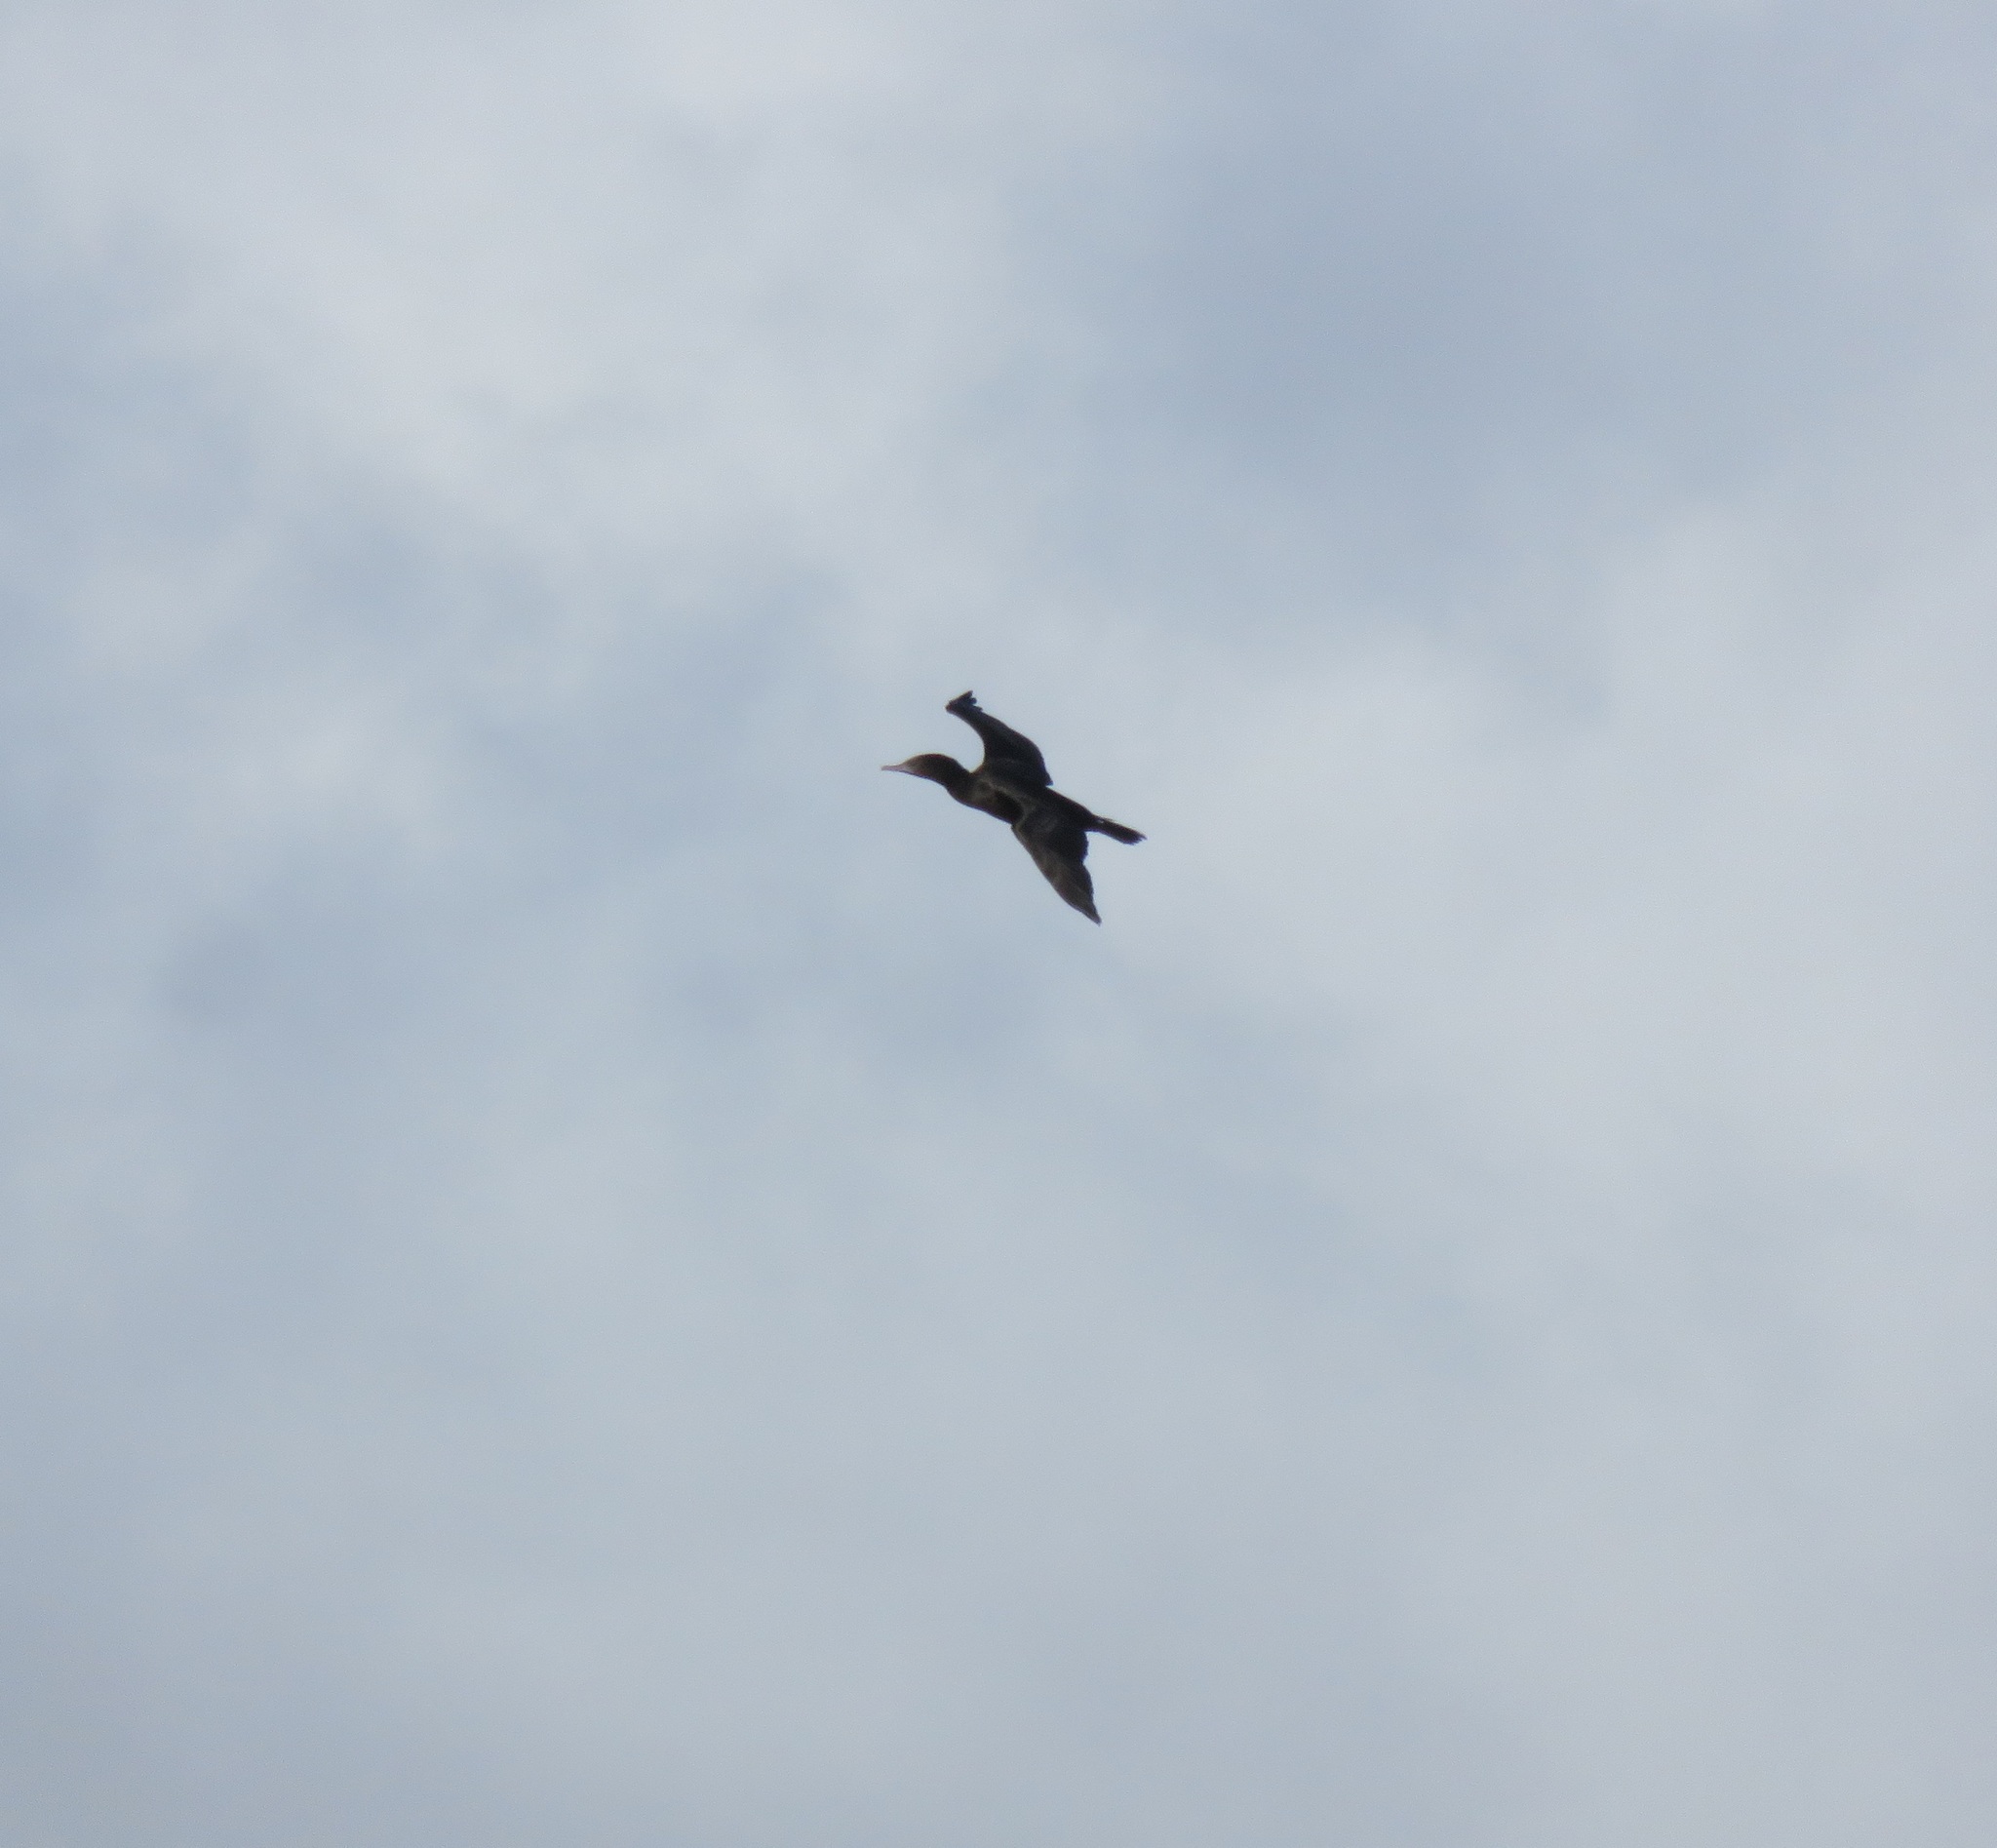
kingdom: Animalia
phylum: Chordata
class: Aves
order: Suliformes
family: Phalacrocoracidae
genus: Phalacrocorax
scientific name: Phalacrocorax sulcirostris
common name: Little black cormorant
